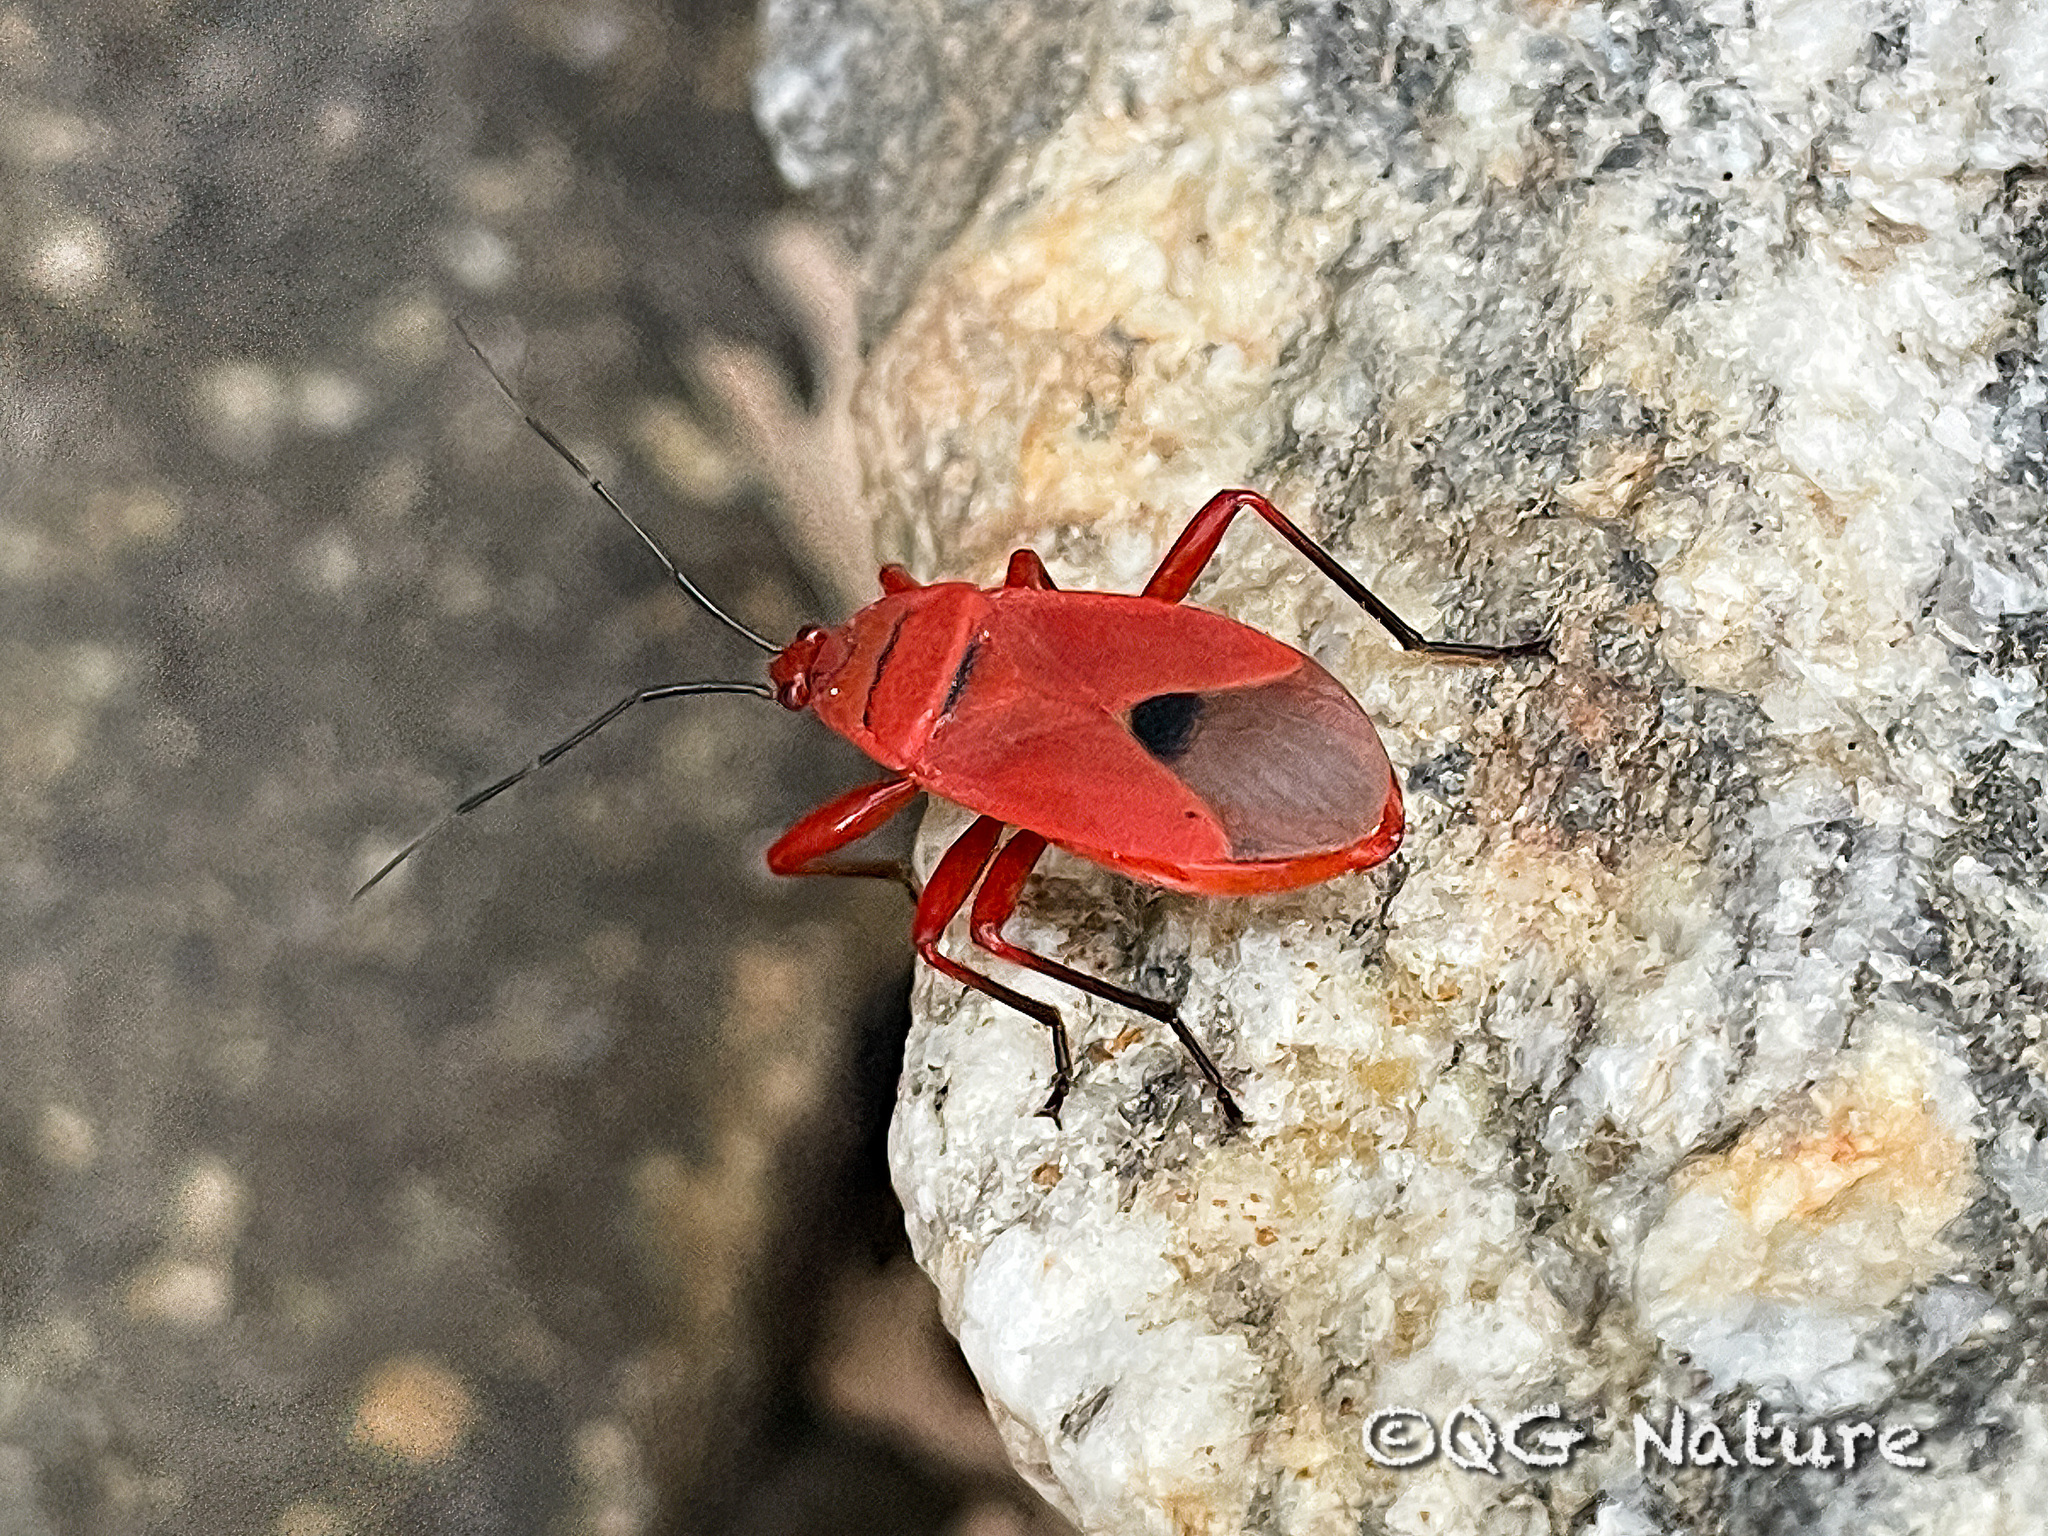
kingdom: Animalia
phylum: Arthropoda
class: Insecta
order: Hemiptera
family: Pyrrhocoridae
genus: Antilochus
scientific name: Antilochus coquebertii
